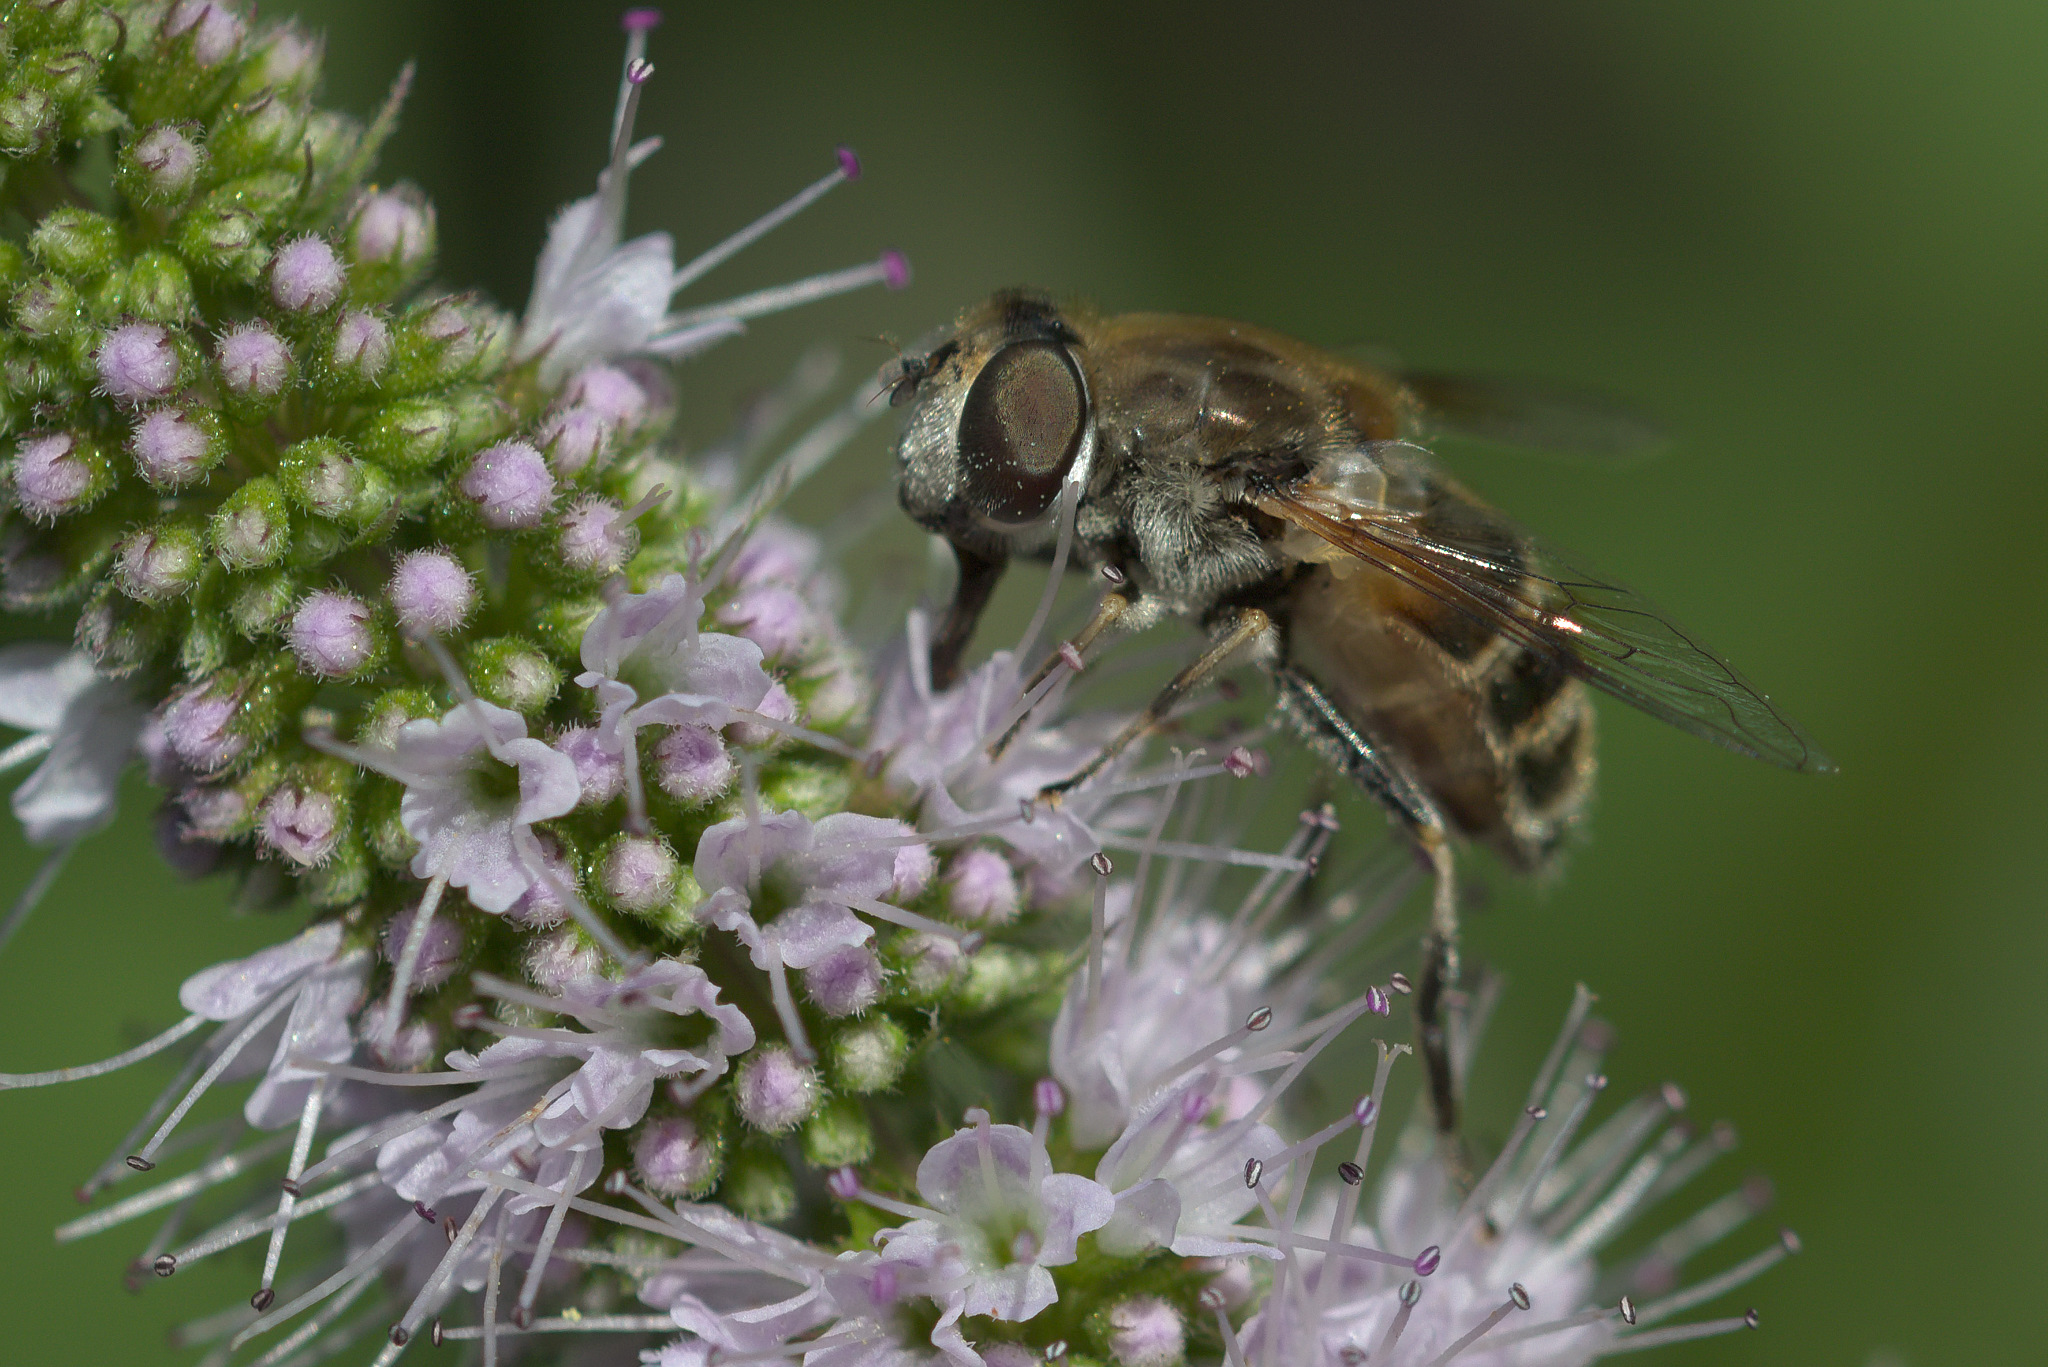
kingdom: Animalia
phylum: Arthropoda
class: Insecta
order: Diptera
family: Syrphidae
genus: Eristalis
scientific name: Eristalis arbustorum
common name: Hover fly
